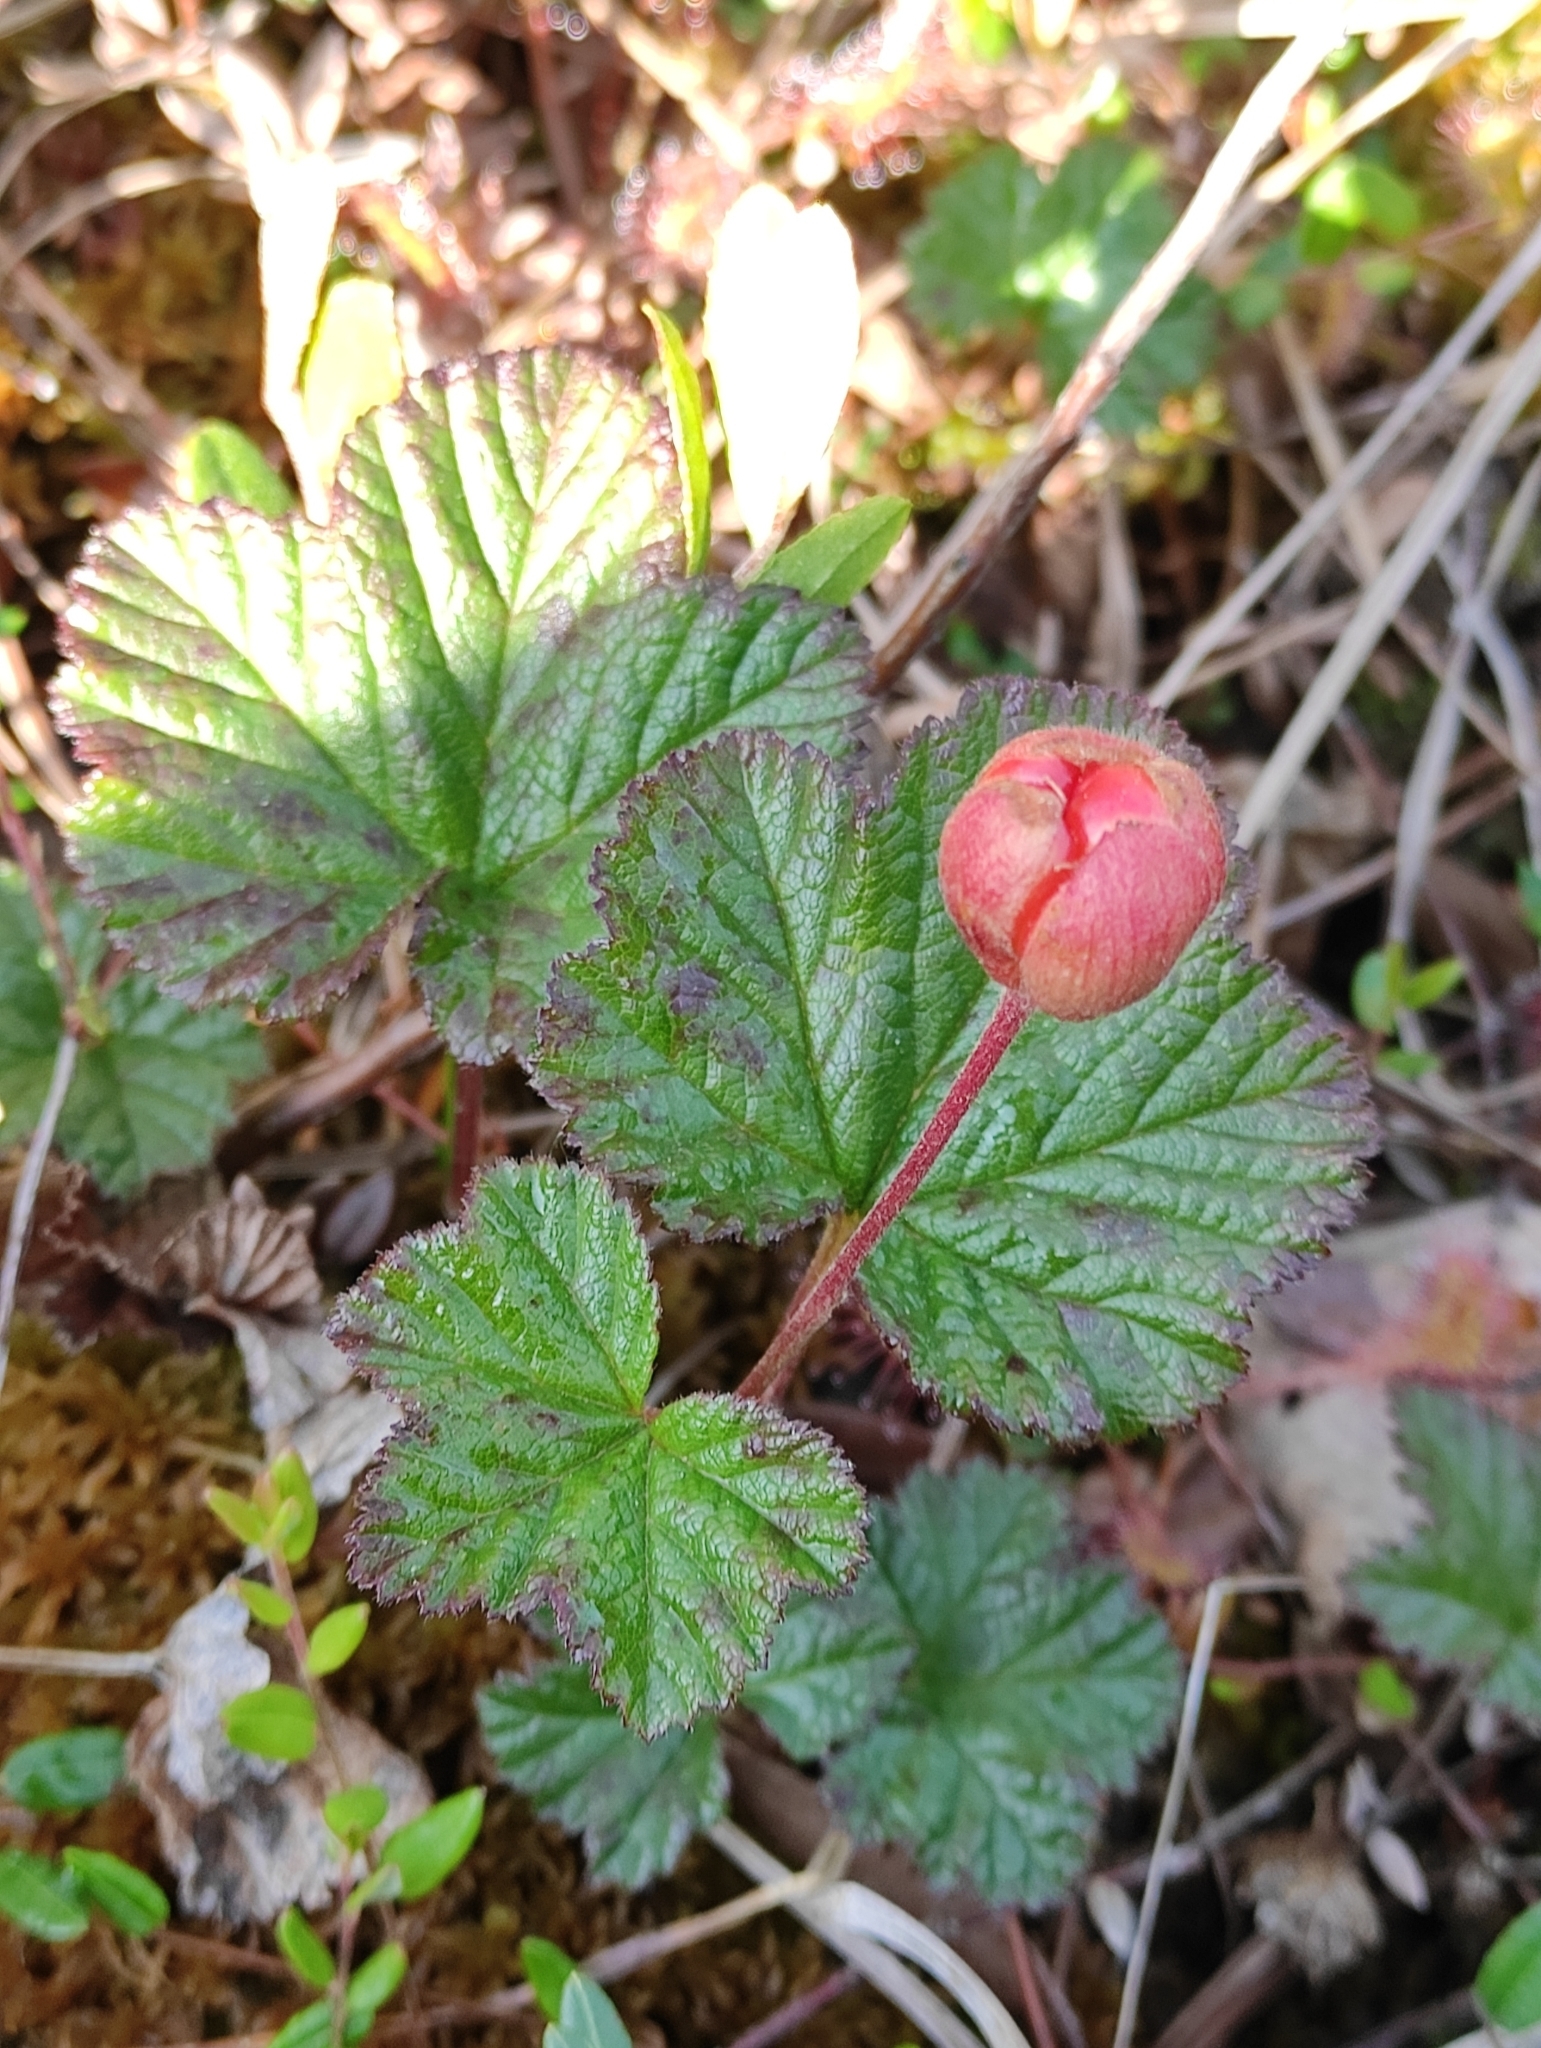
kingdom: Plantae
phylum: Tracheophyta
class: Magnoliopsida
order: Rosales
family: Rosaceae
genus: Rubus
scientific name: Rubus chamaemorus
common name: Cloudberry
